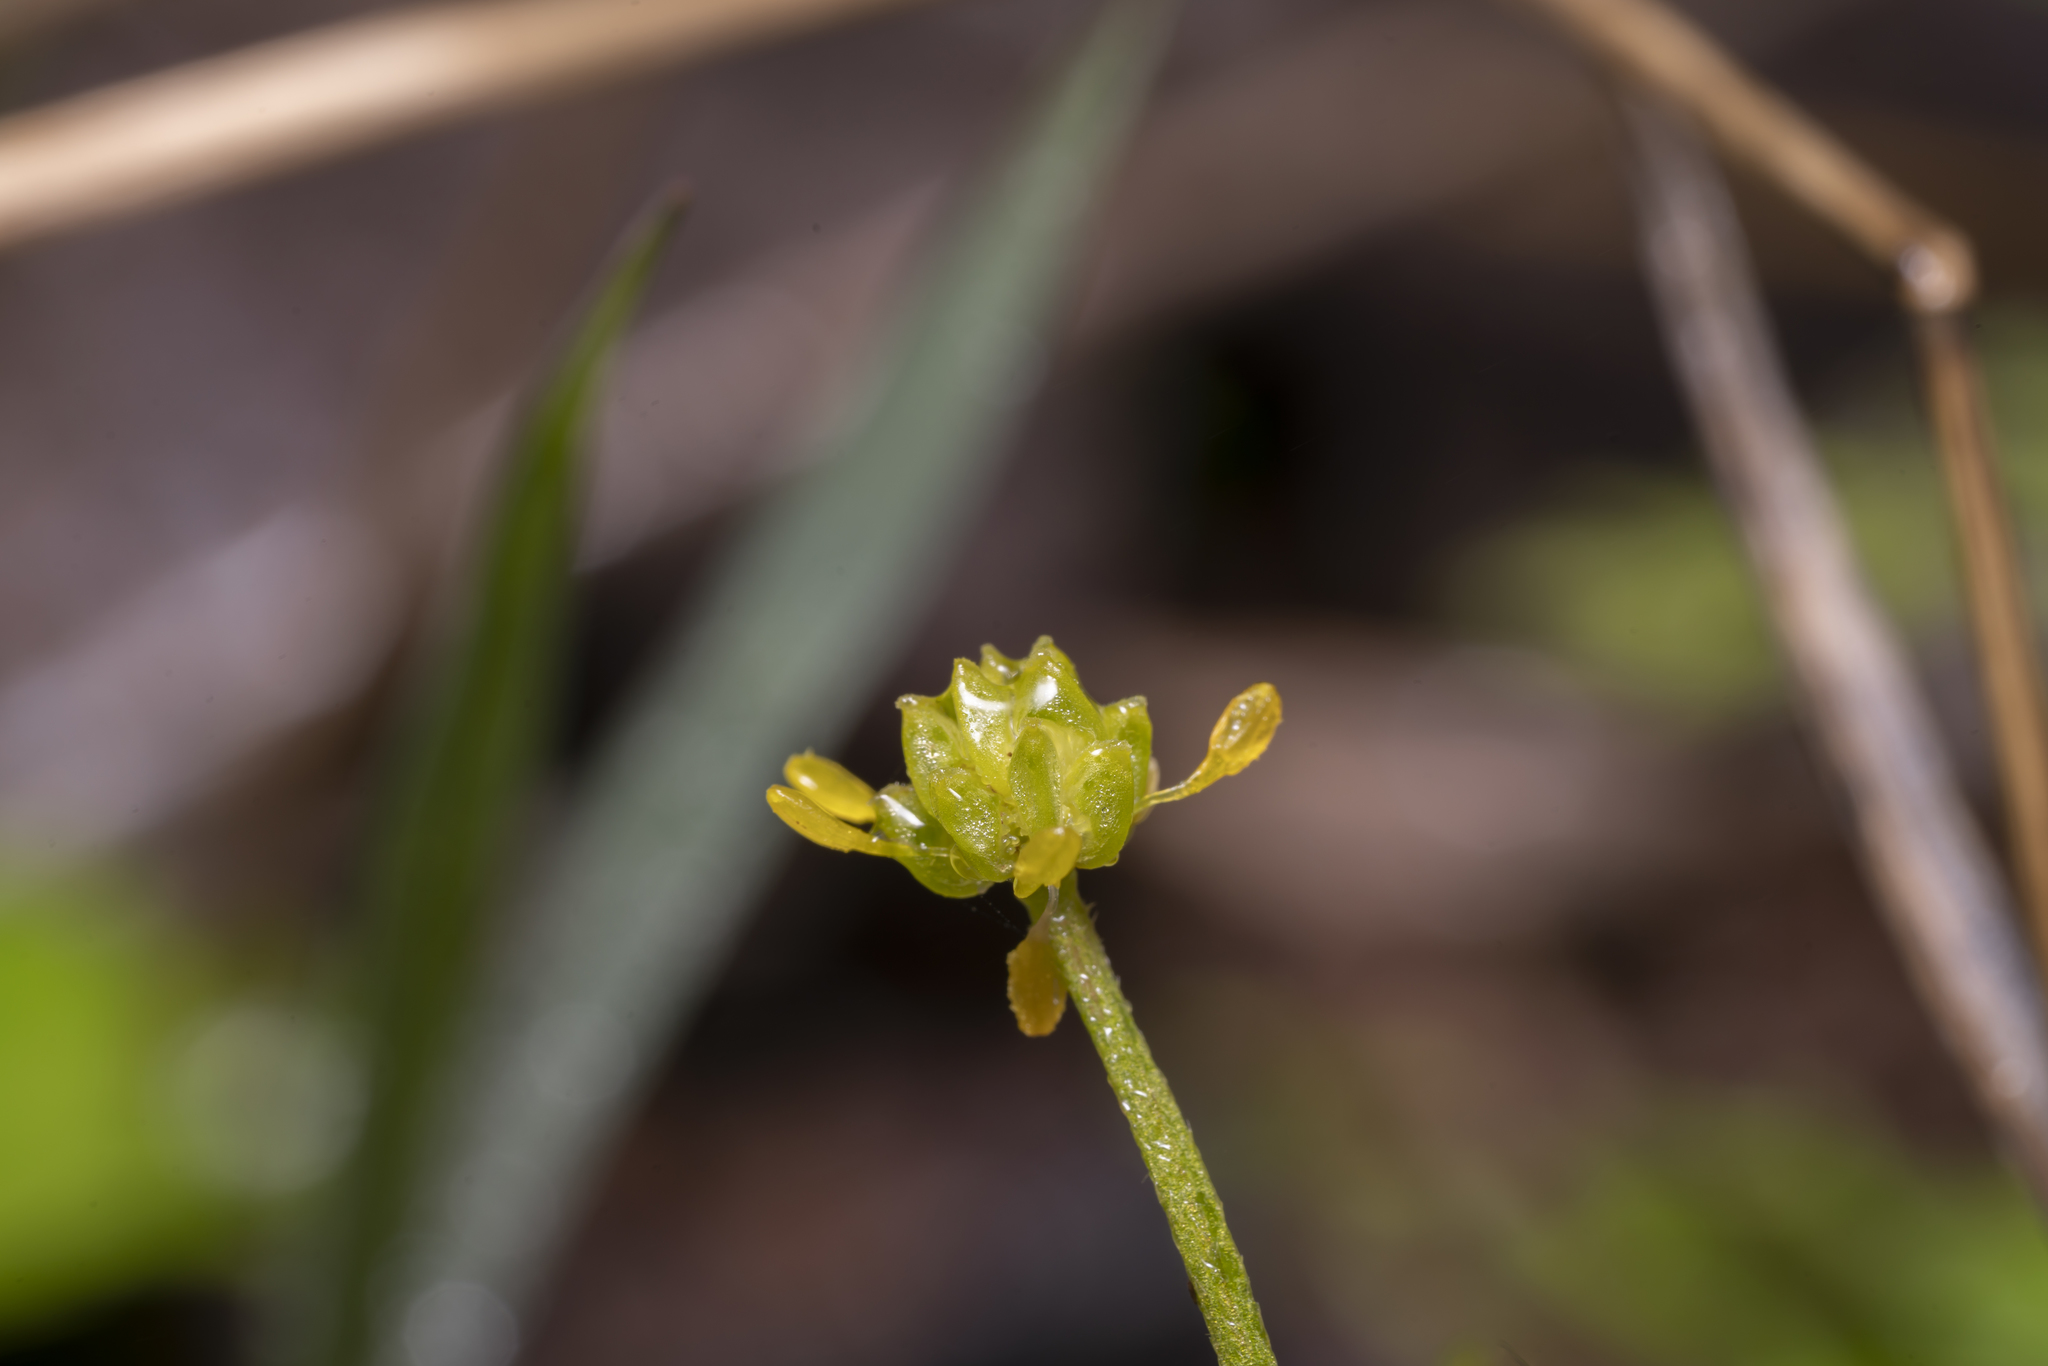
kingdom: Plantae
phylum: Tracheophyta
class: Magnoliopsida
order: Ranunculales
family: Ranunculaceae
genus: Ranunculus
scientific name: Ranunculus muricatus
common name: Rough-fruited buttercup
